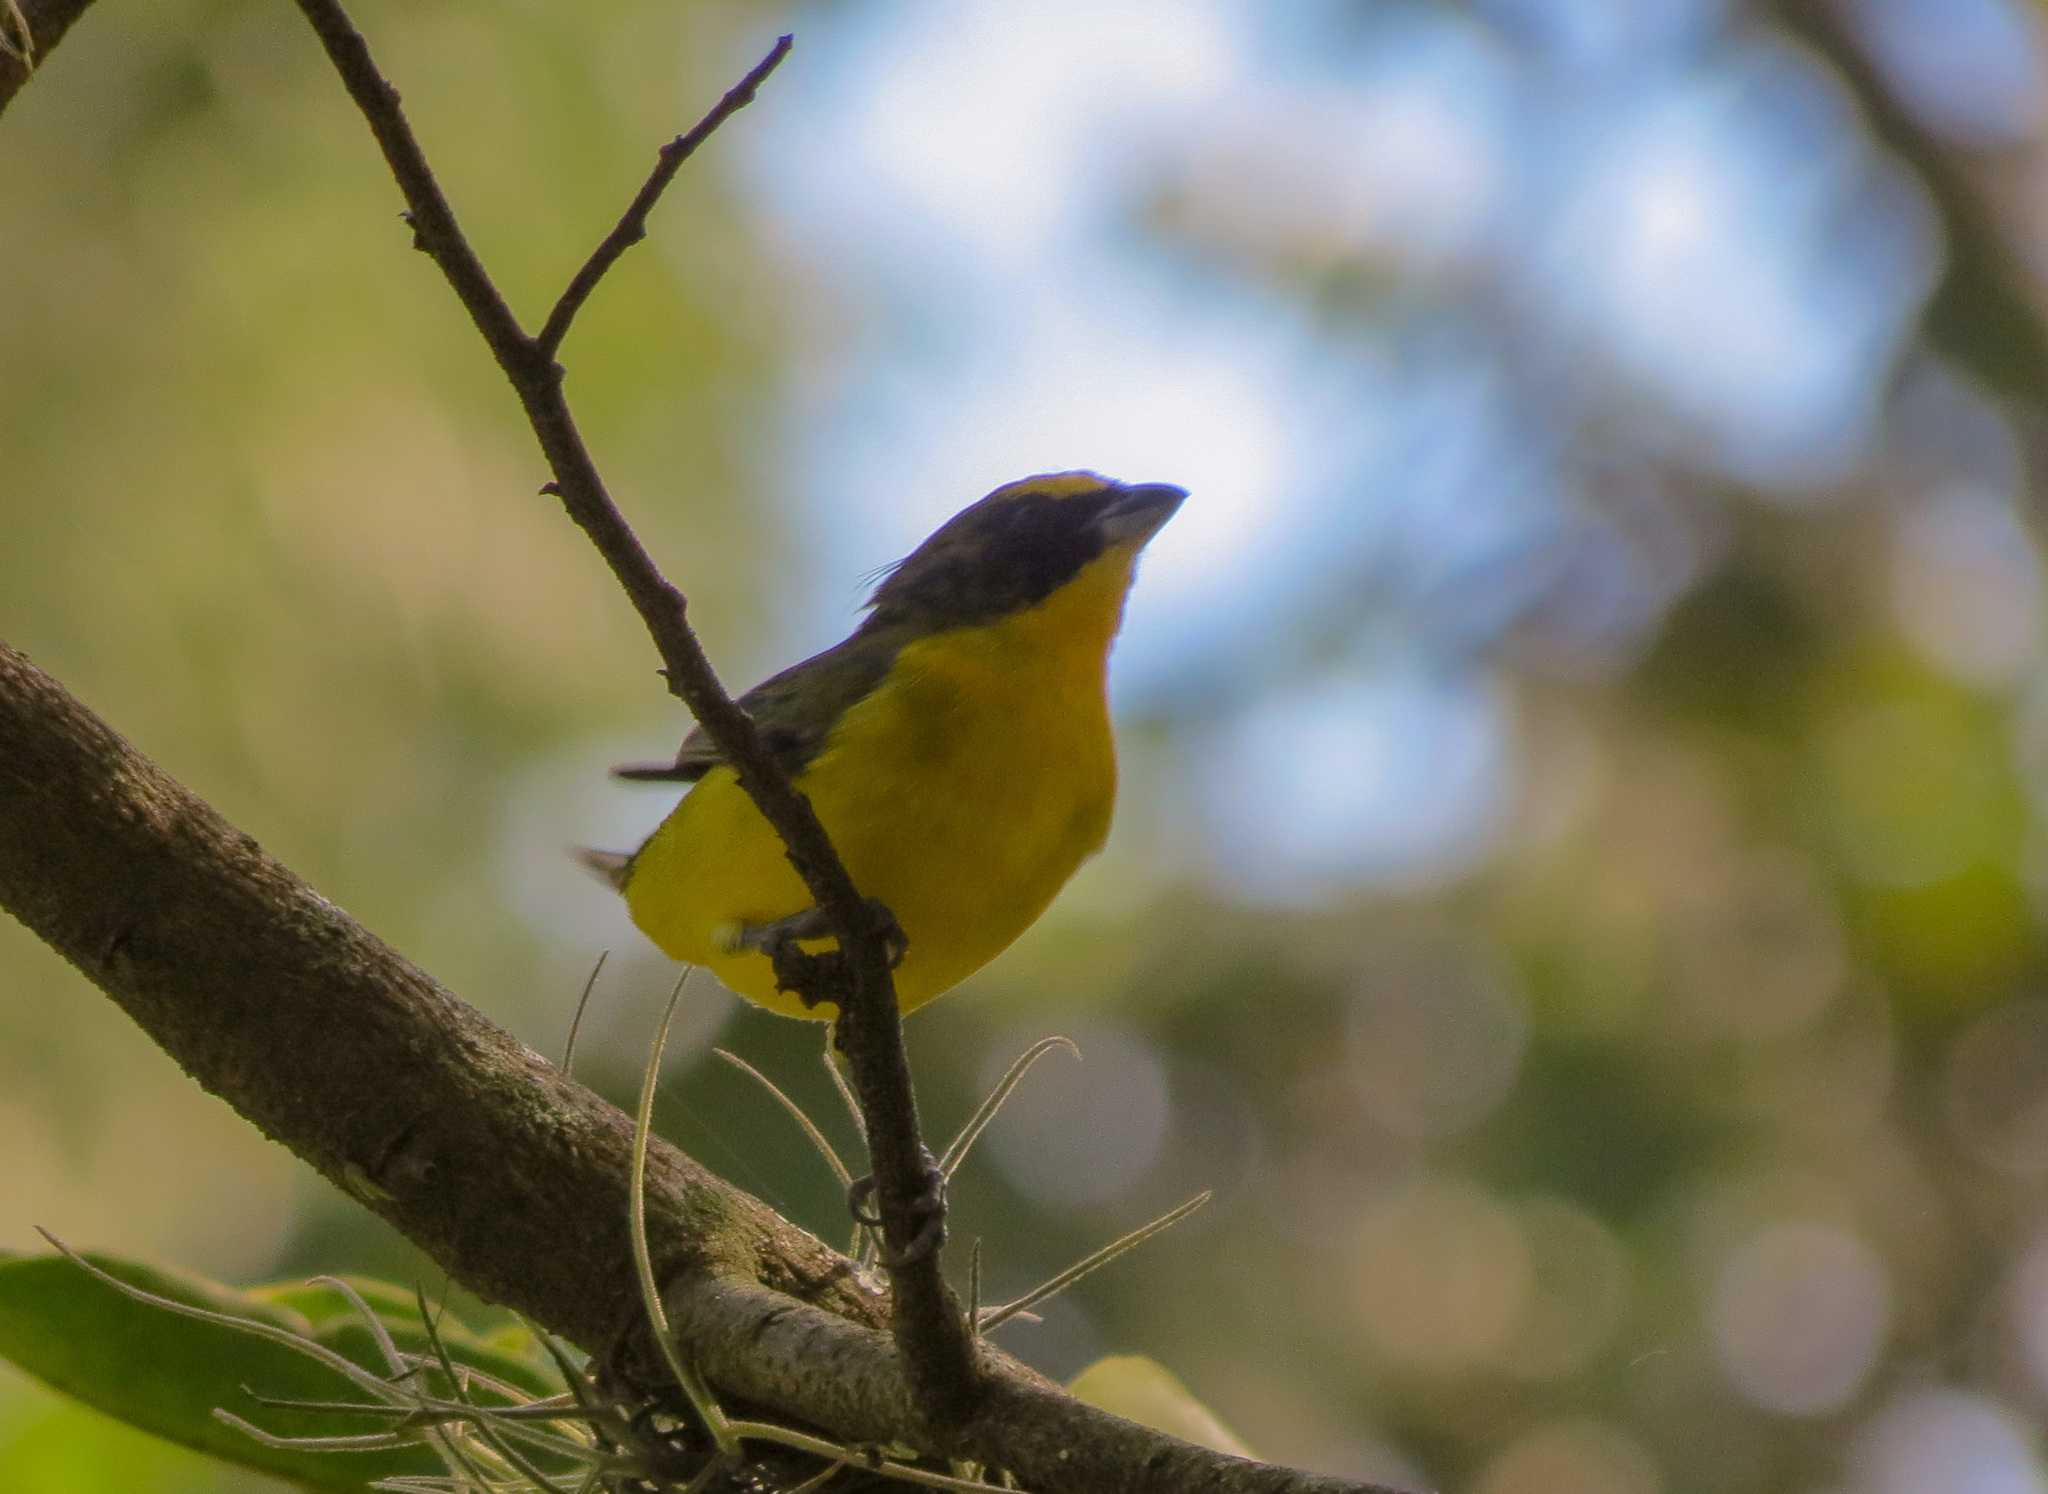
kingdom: Animalia
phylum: Chordata
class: Aves
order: Passeriformes
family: Fringillidae
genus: Euphonia
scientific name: Euphonia laniirostris
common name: Thick-billed euphonia
